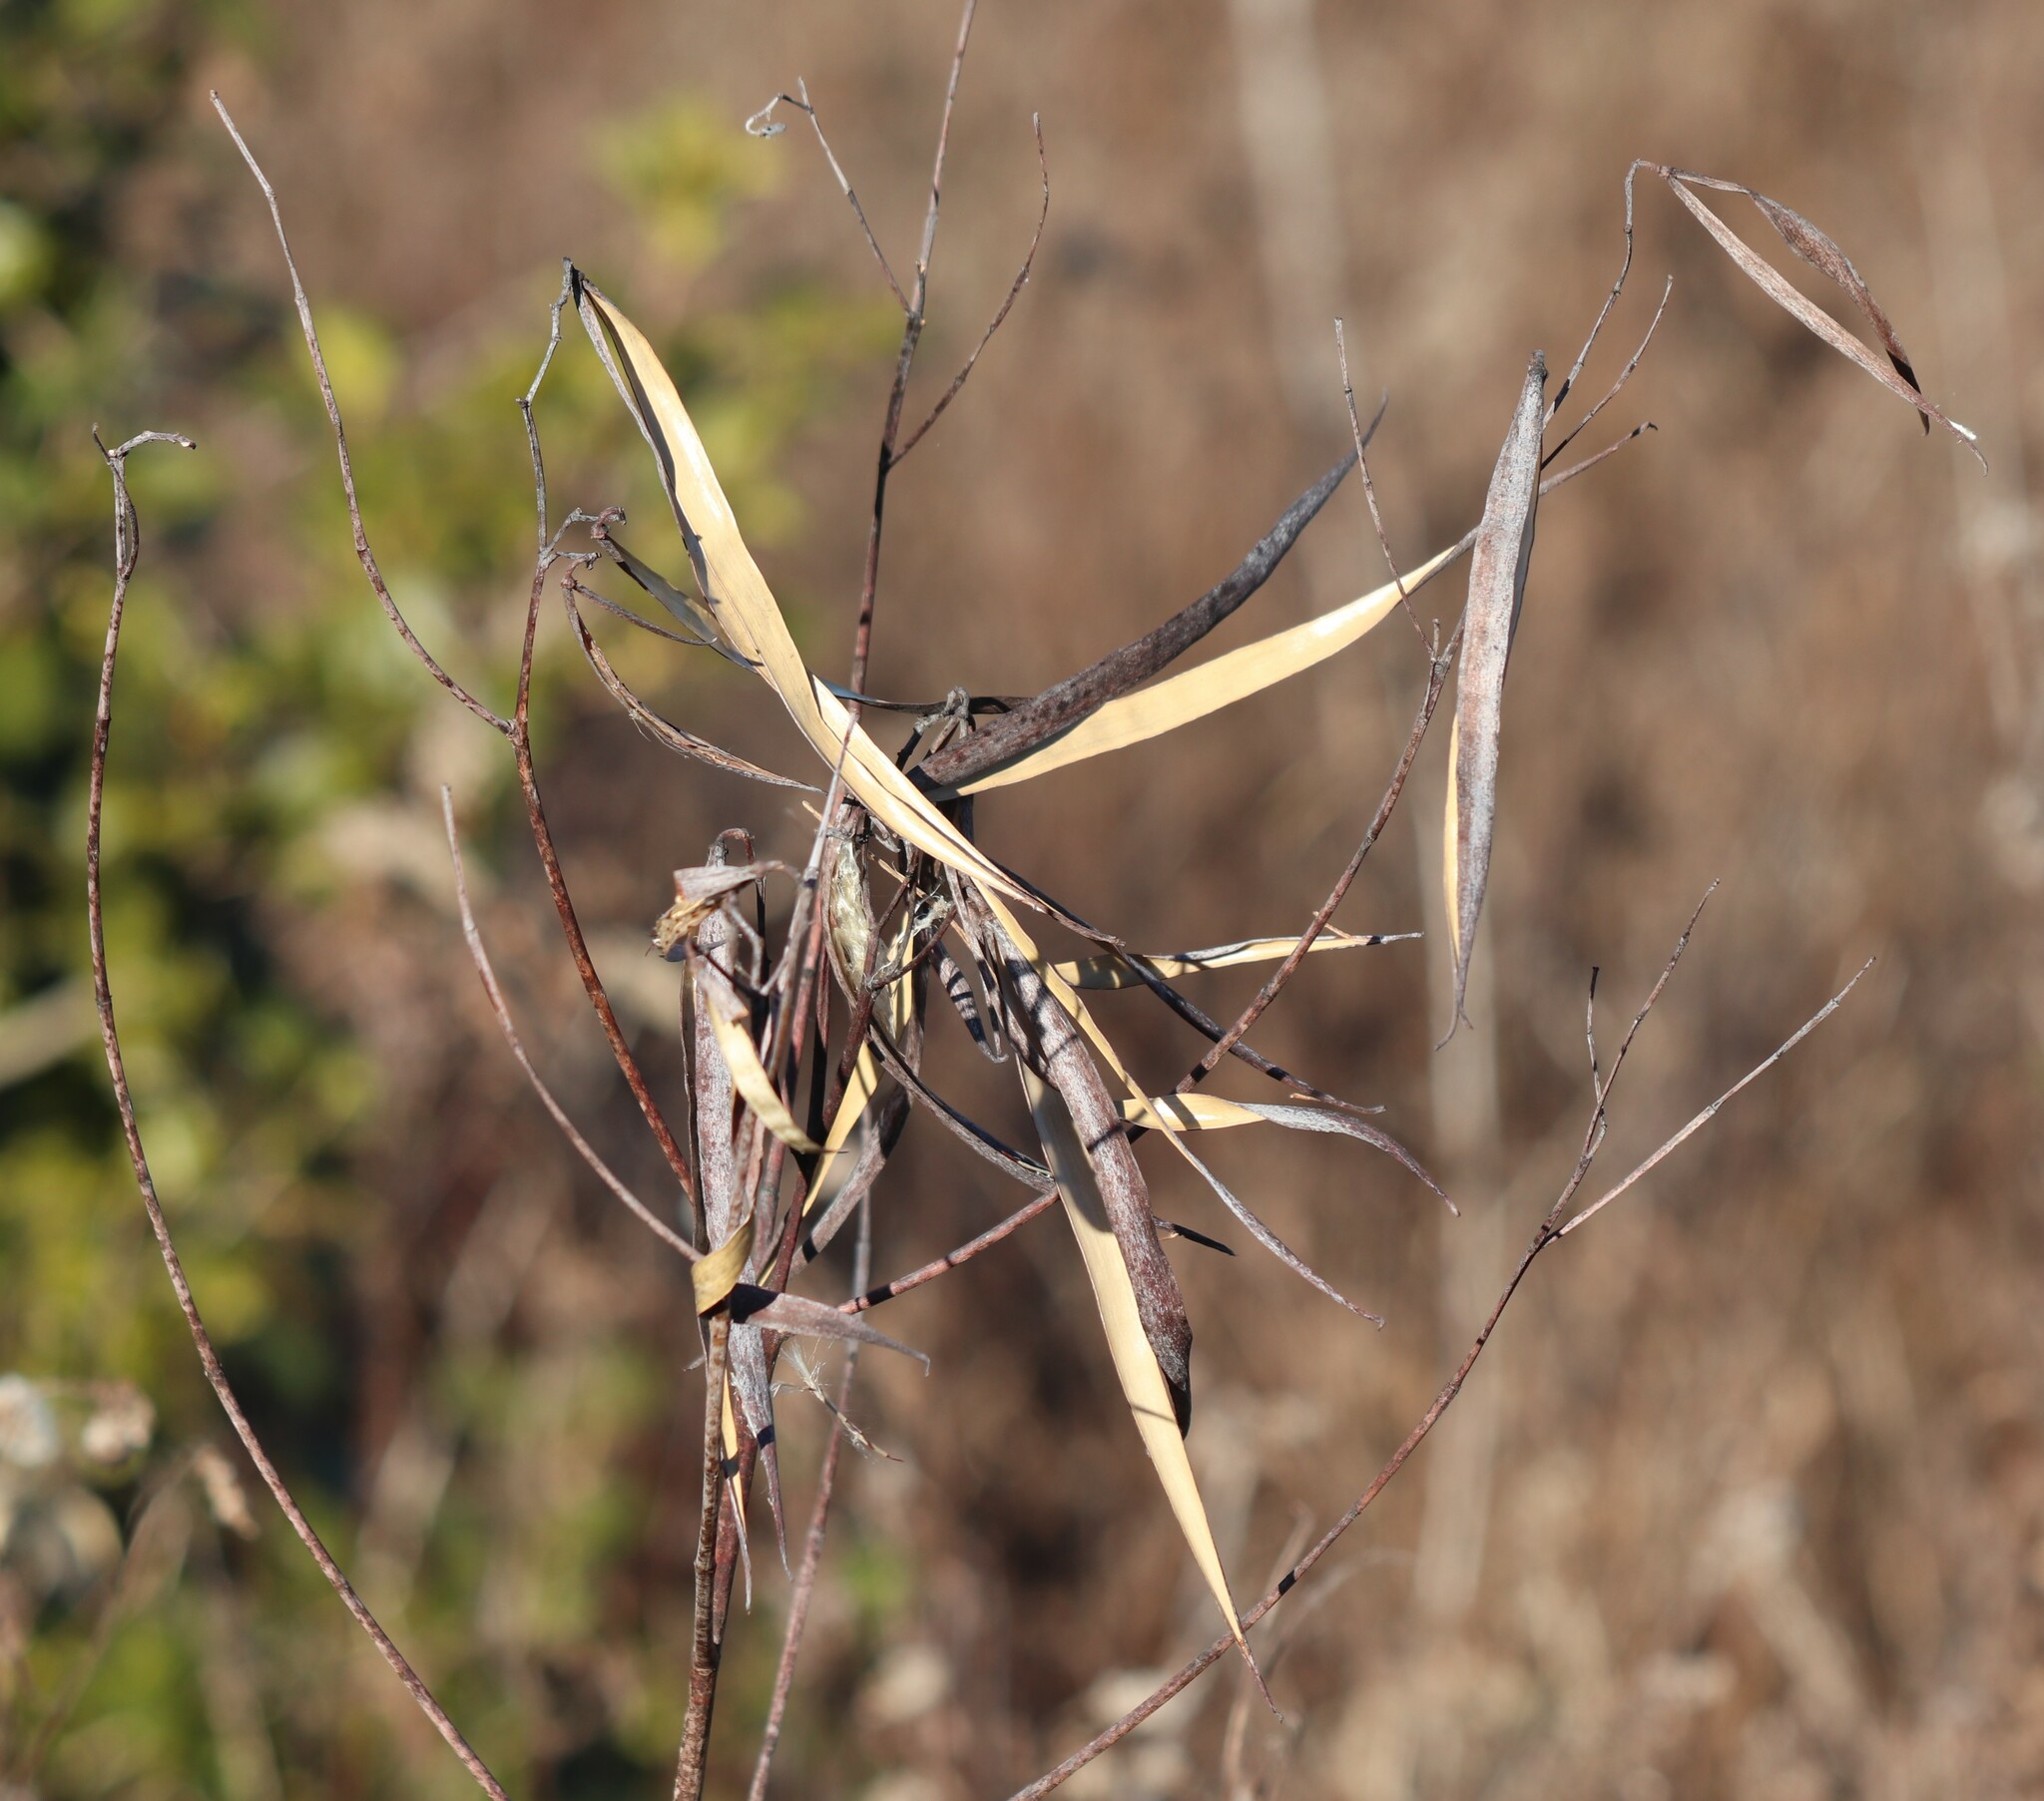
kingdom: Plantae
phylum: Tracheophyta
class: Magnoliopsida
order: Gentianales
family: Apocynaceae
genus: Apocynum
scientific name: Apocynum cannabinum
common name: Hemp dogbane
